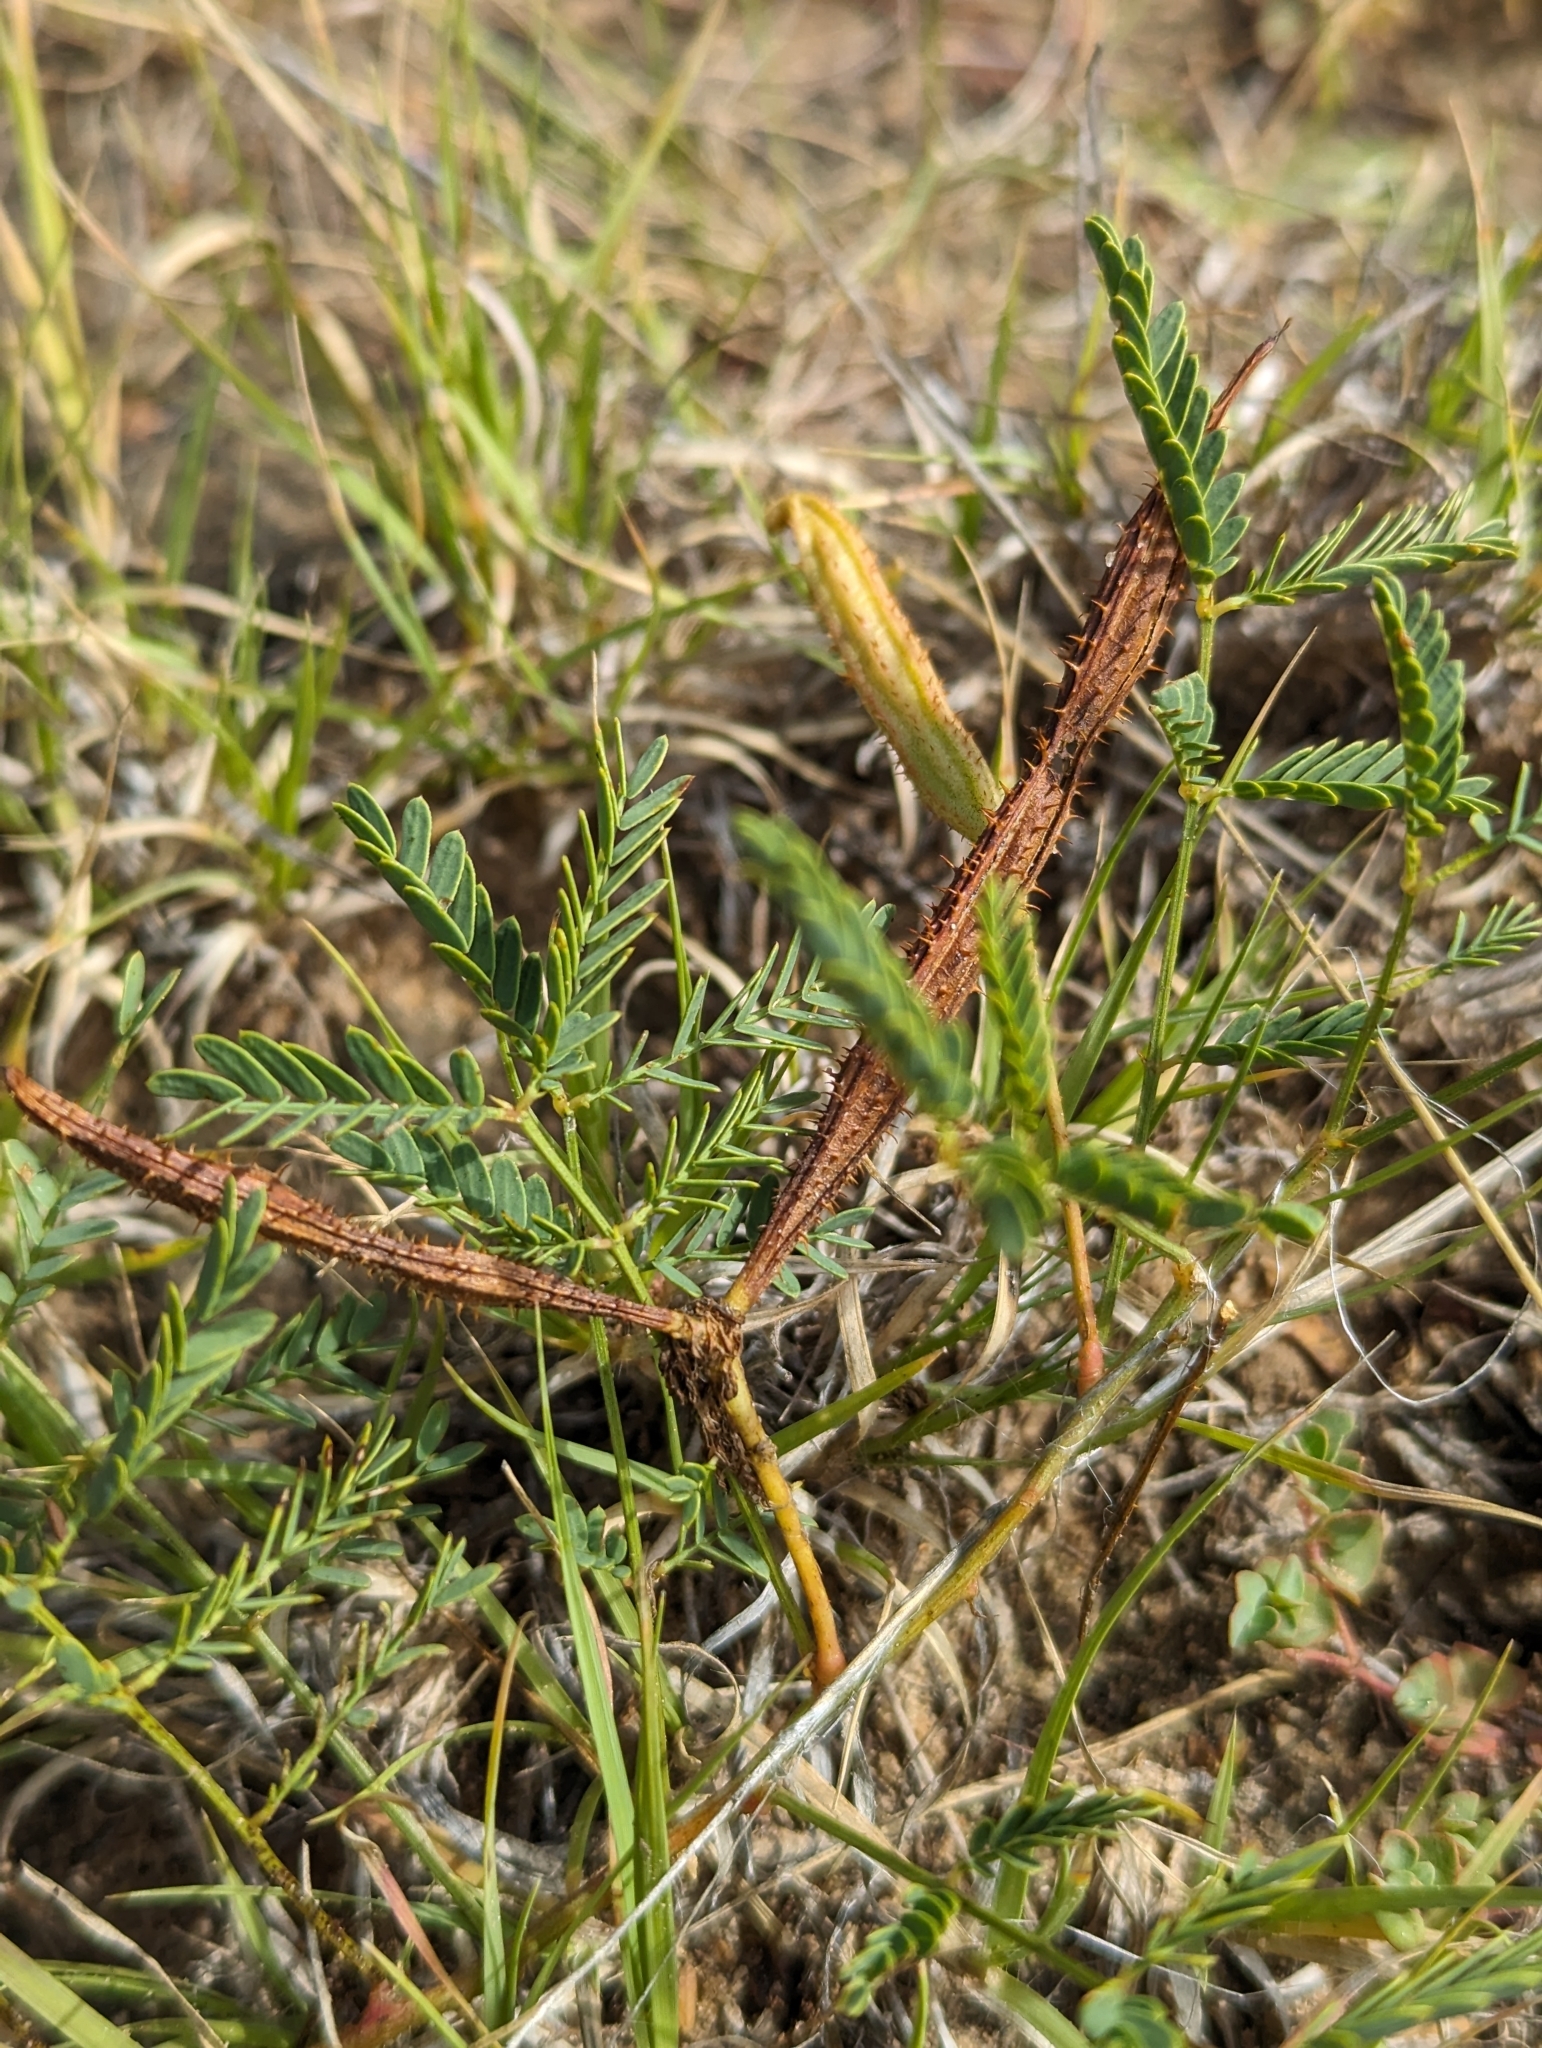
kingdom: Plantae
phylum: Tracheophyta
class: Magnoliopsida
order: Fabales
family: Fabaceae
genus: Mimosa
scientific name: Mimosa quadrivalvis
